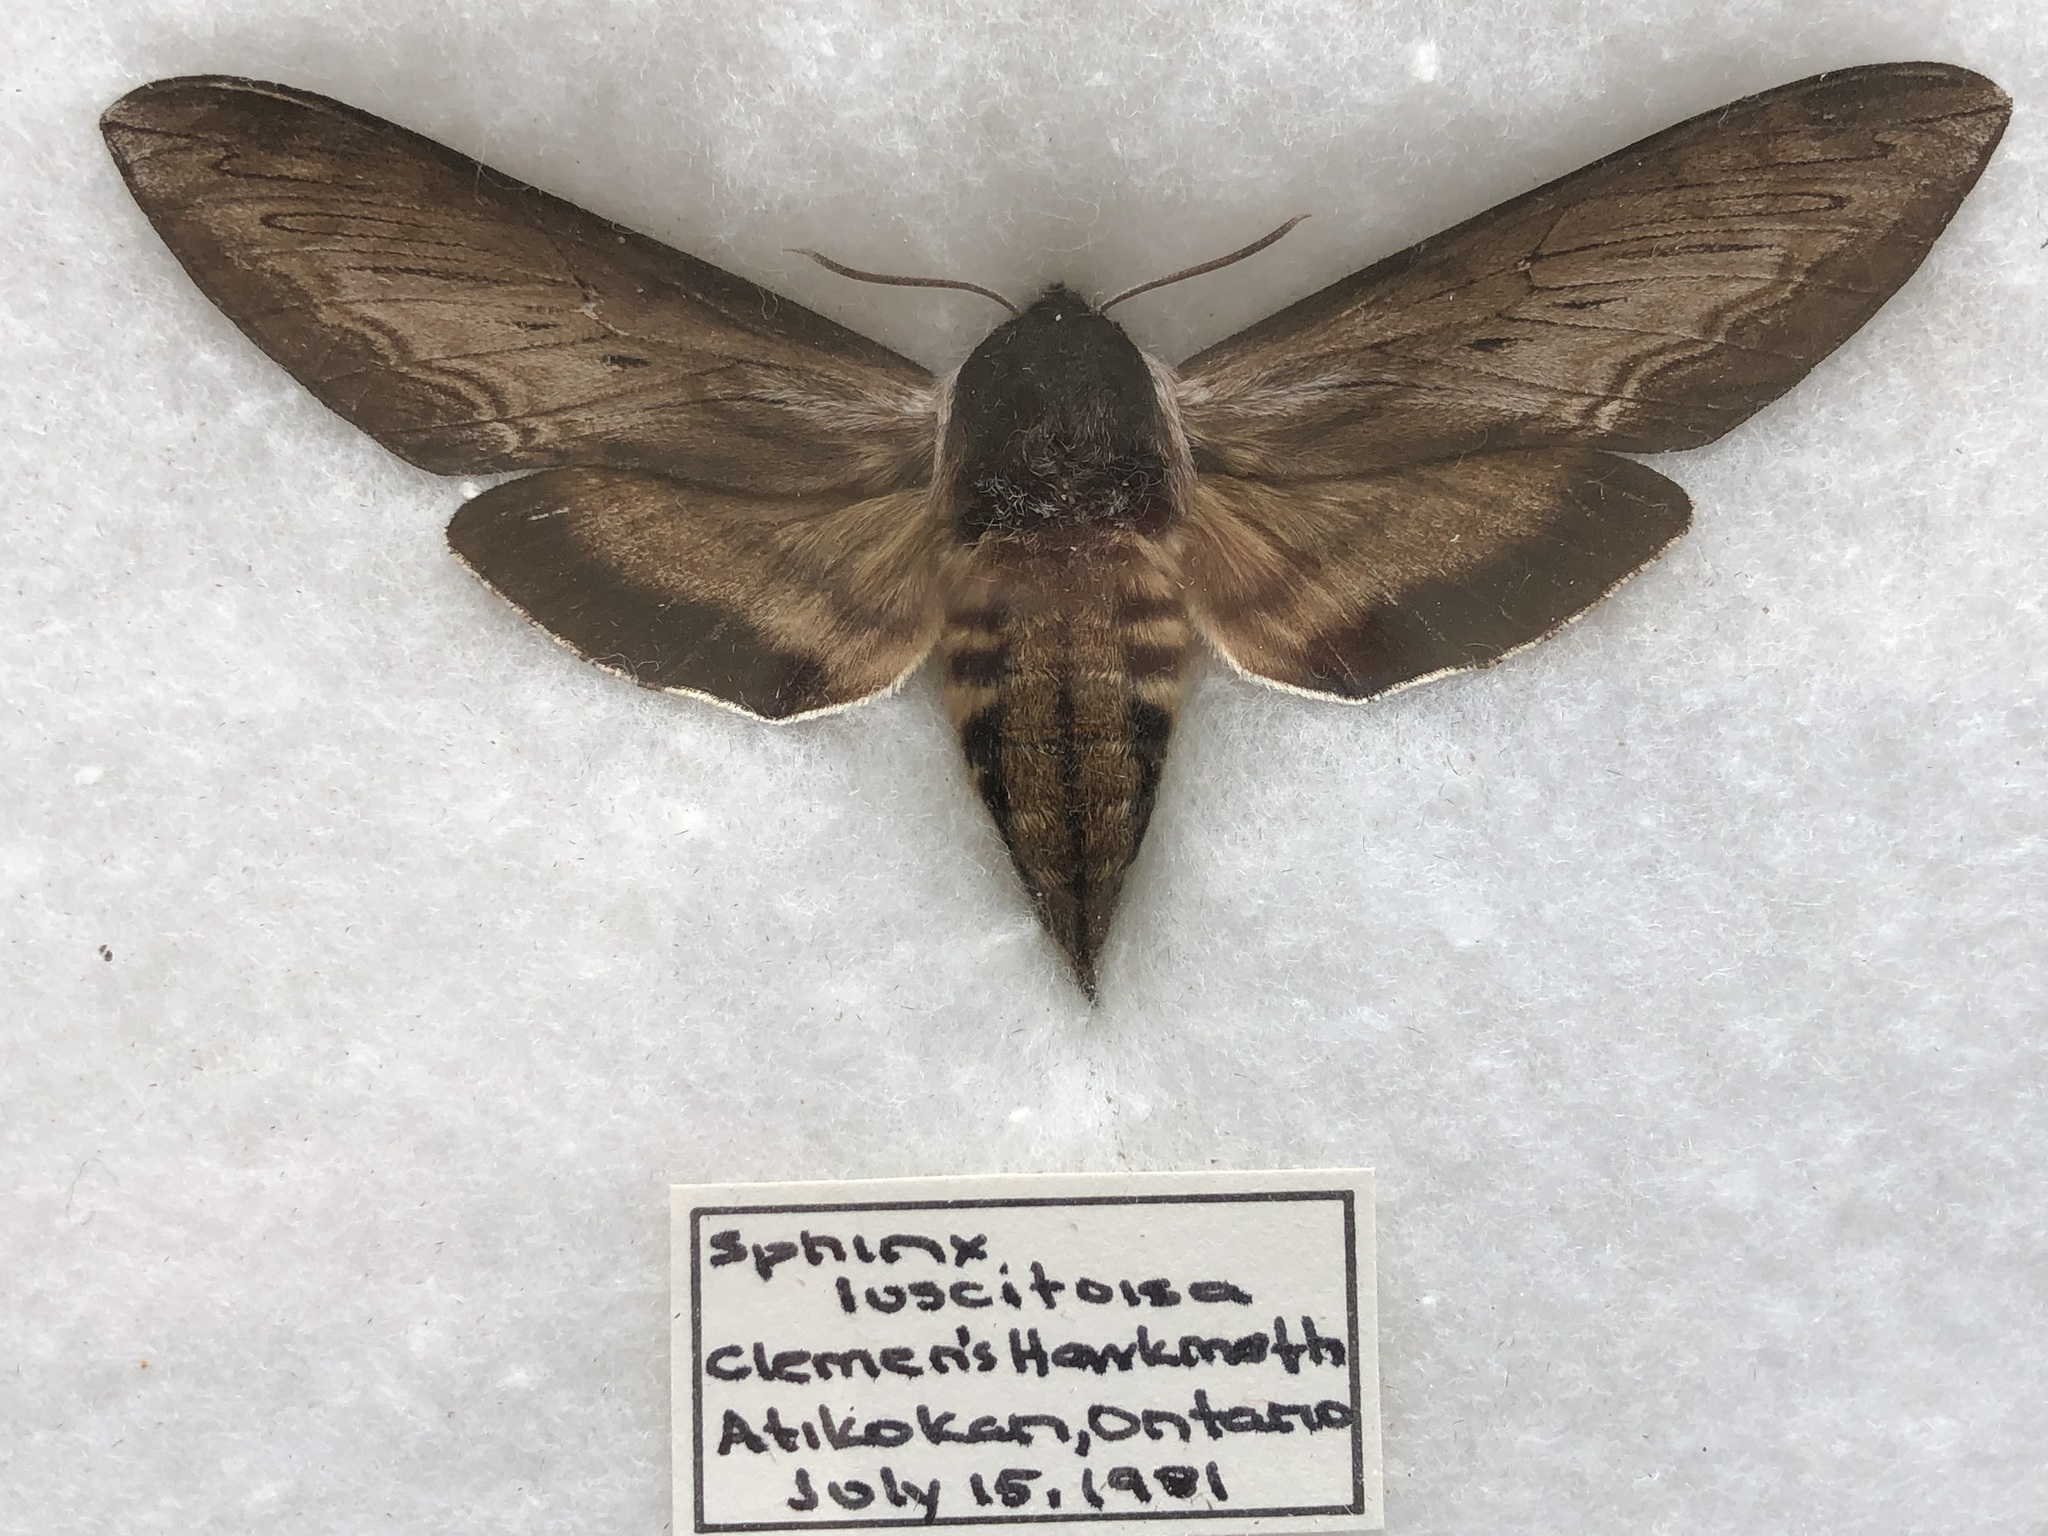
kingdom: Animalia
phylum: Arthropoda
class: Insecta
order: Lepidoptera
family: Sphingidae
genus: Sphinx
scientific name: Sphinx luscitiosa
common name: Clemen's sphinx
